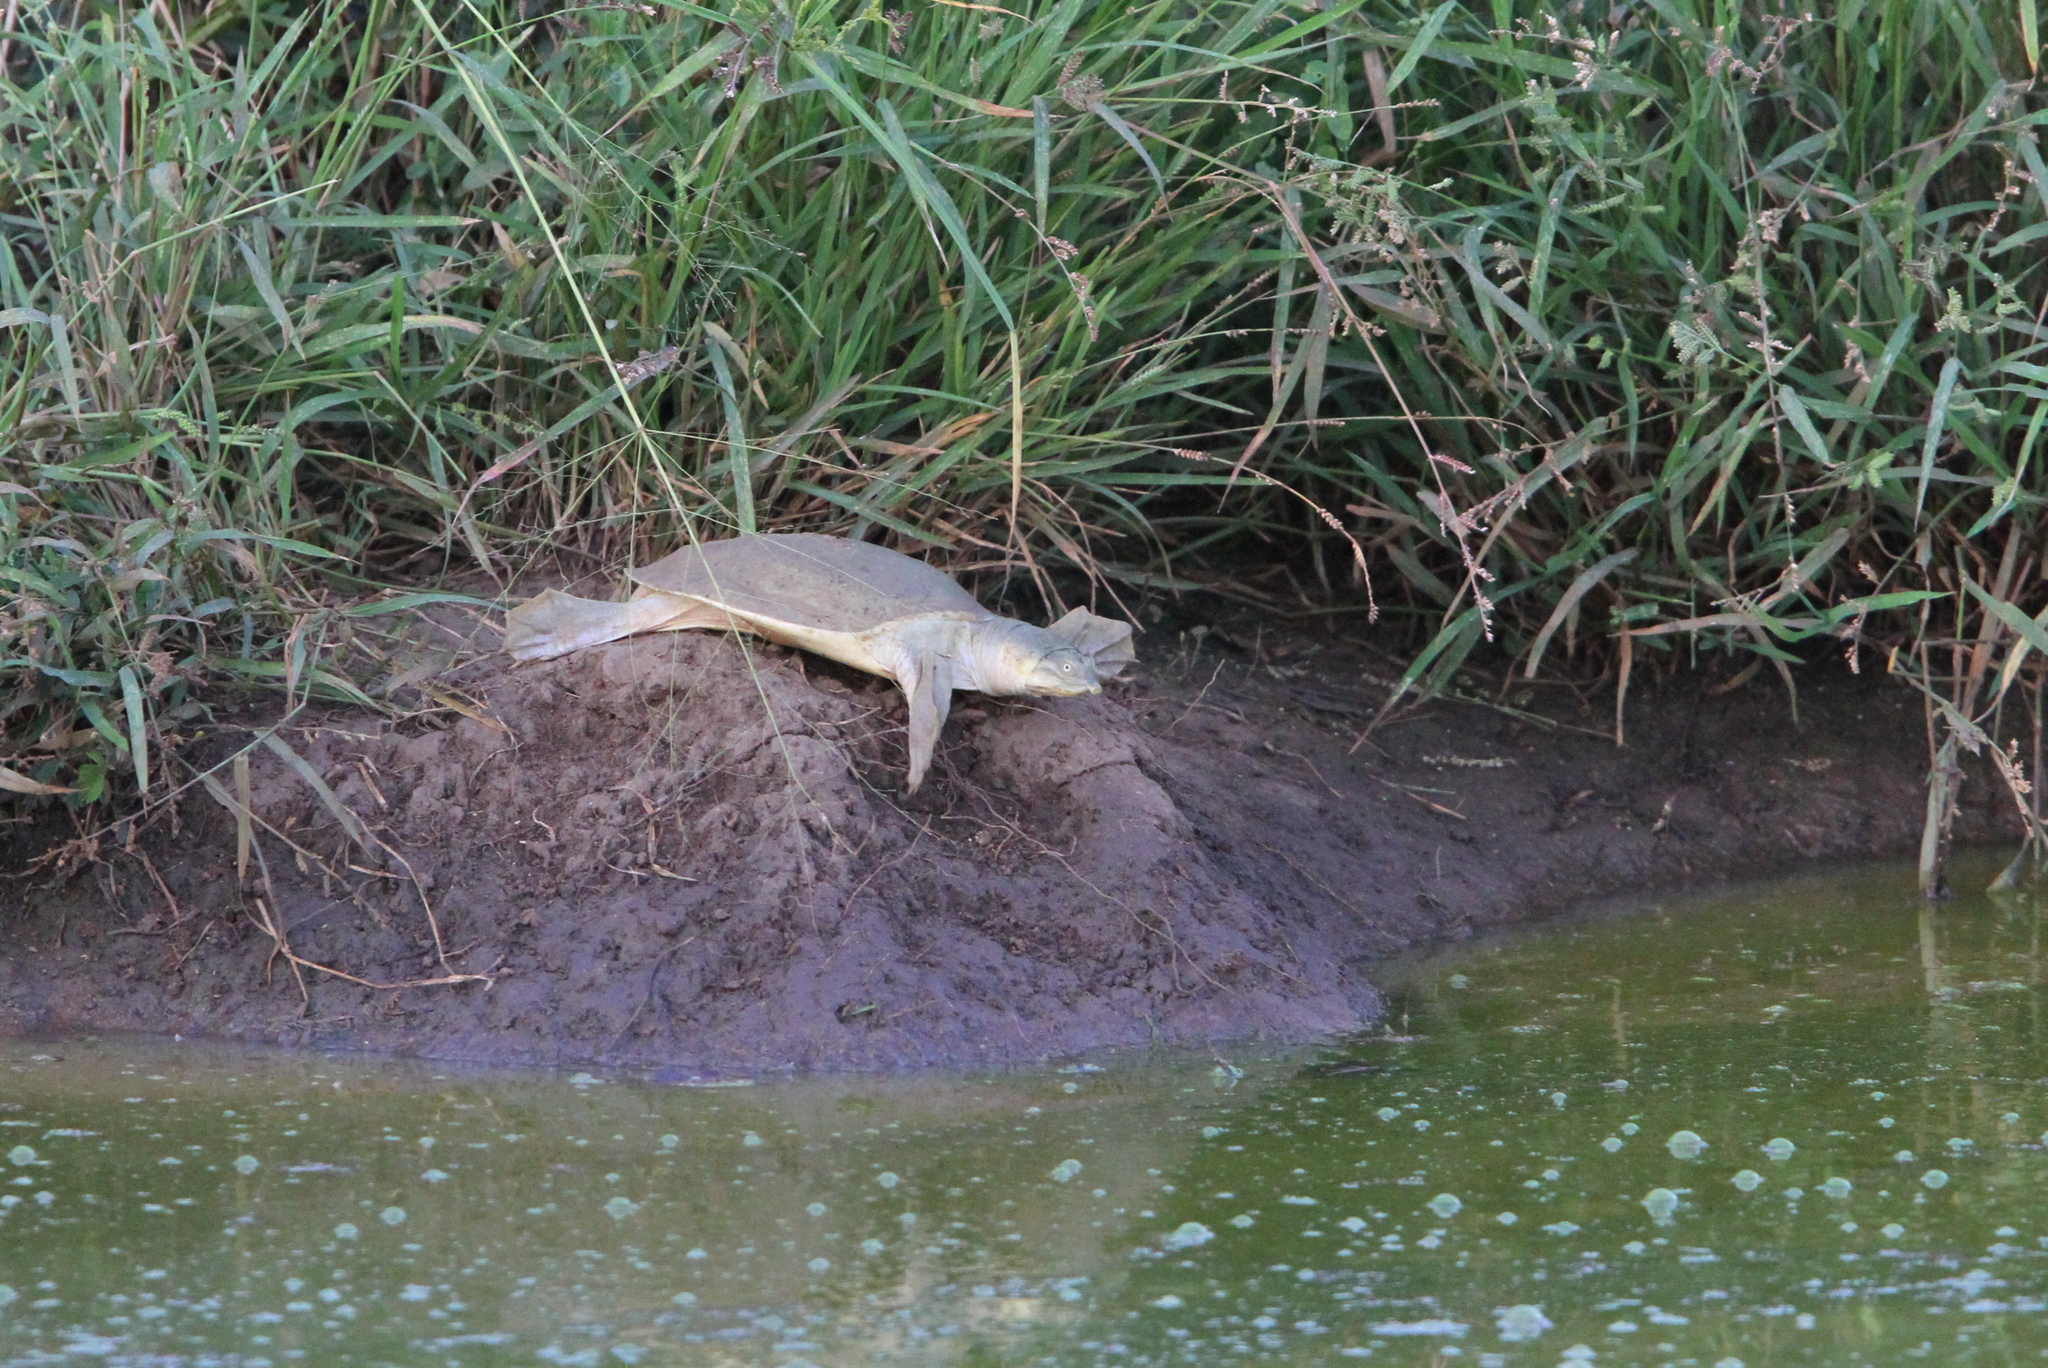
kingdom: Animalia
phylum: Chordata
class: Testudines
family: Trionychidae
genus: Lissemys
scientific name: Lissemys ceylonensis
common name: Sri lankan flapshell turtle
